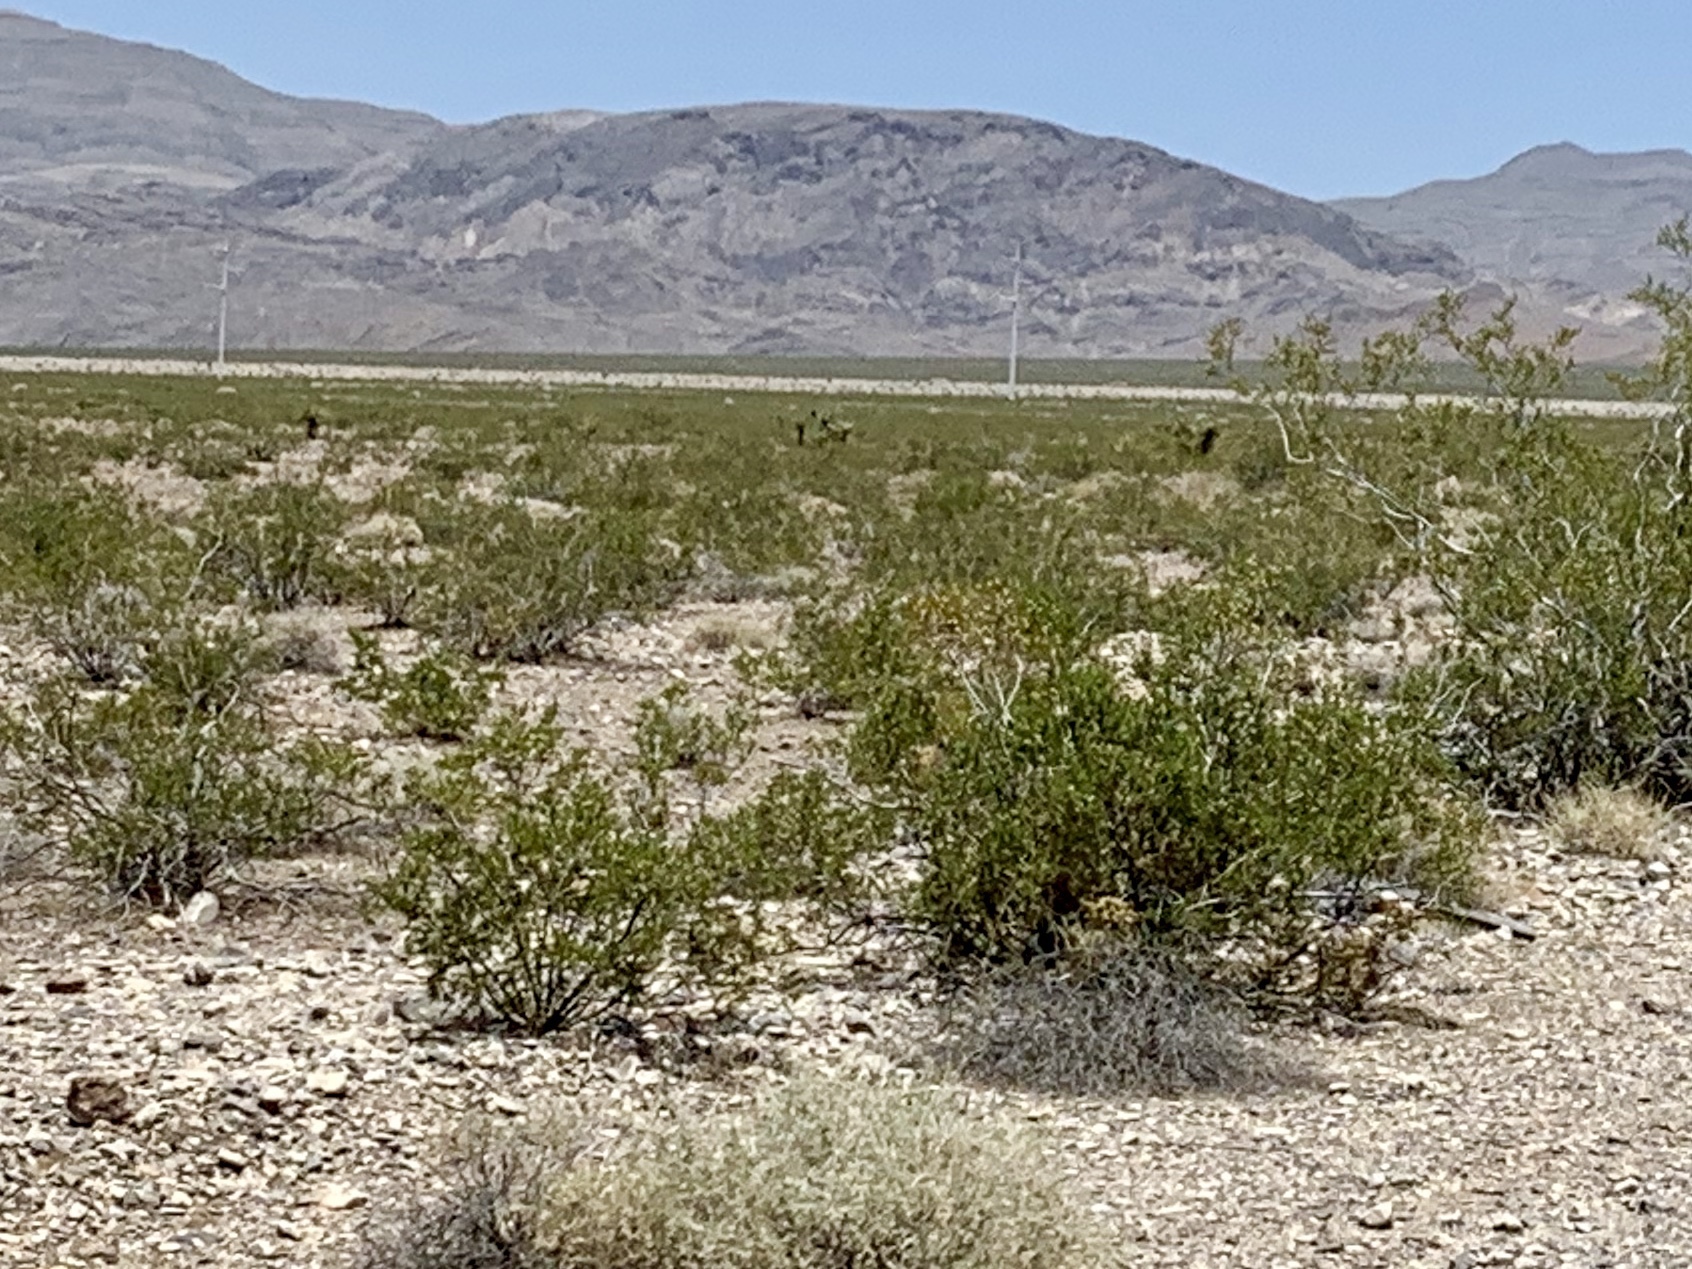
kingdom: Plantae
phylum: Tracheophyta
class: Magnoliopsida
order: Zygophyllales
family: Zygophyllaceae
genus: Larrea
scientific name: Larrea tridentata
